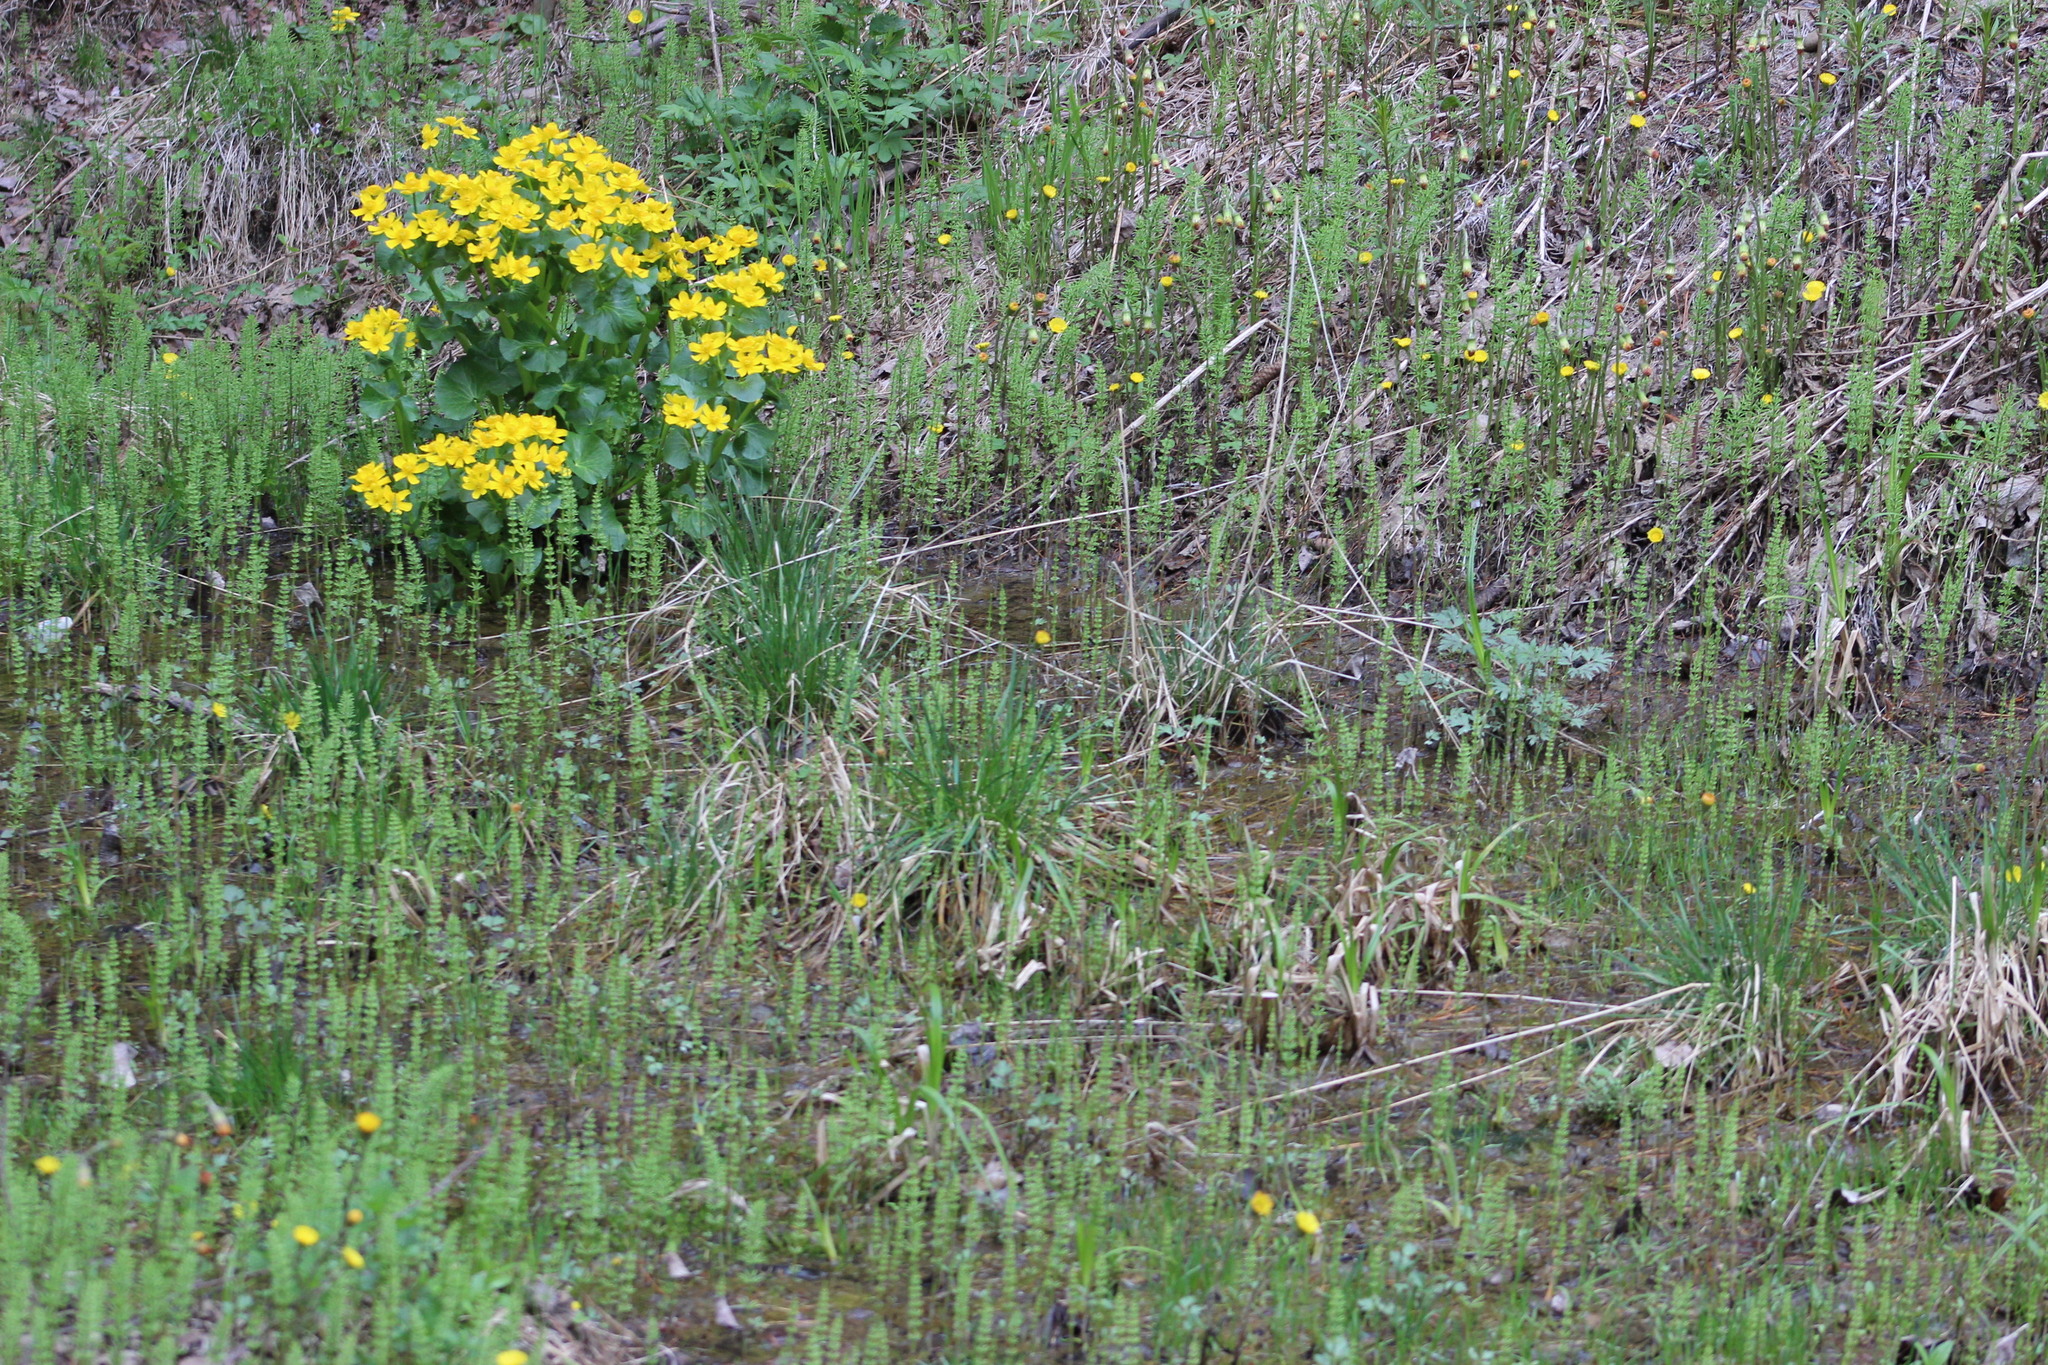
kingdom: Plantae
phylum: Tracheophyta
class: Magnoliopsida
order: Ranunculales
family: Ranunculaceae
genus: Caltha
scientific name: Caltha palustris
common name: Marsh marigold
